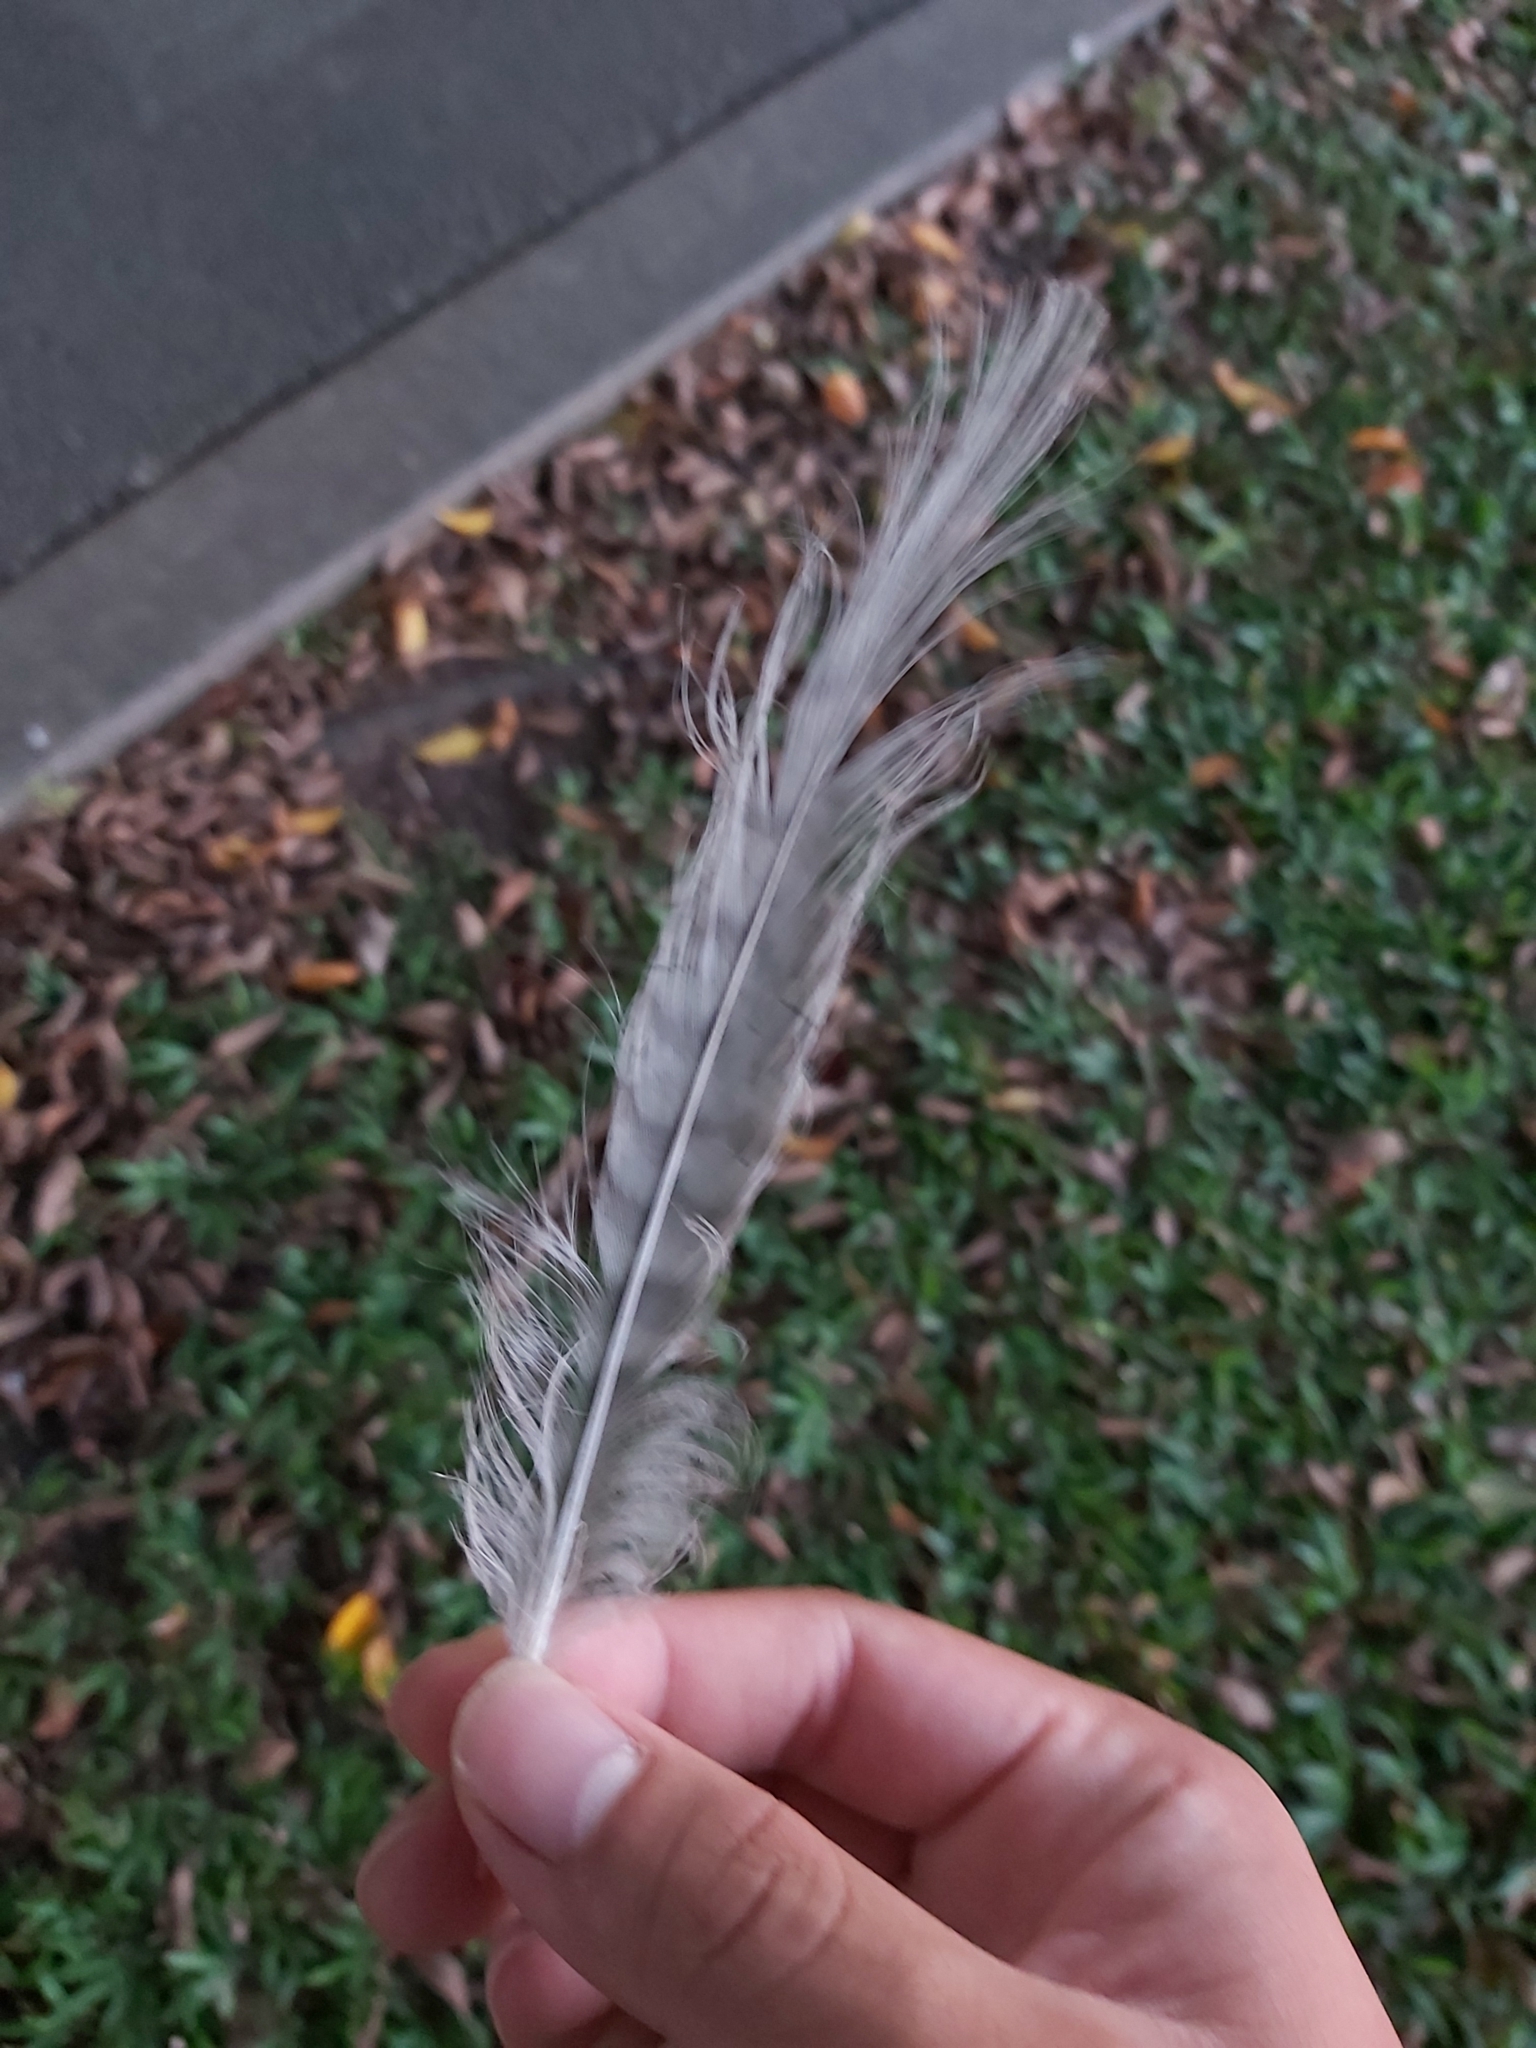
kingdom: Animalia
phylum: Chordata
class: Aves
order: Charadriiformes
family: Burhinidae
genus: Burhinus
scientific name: Burhinus grallarius
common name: Bush stone-curlew
